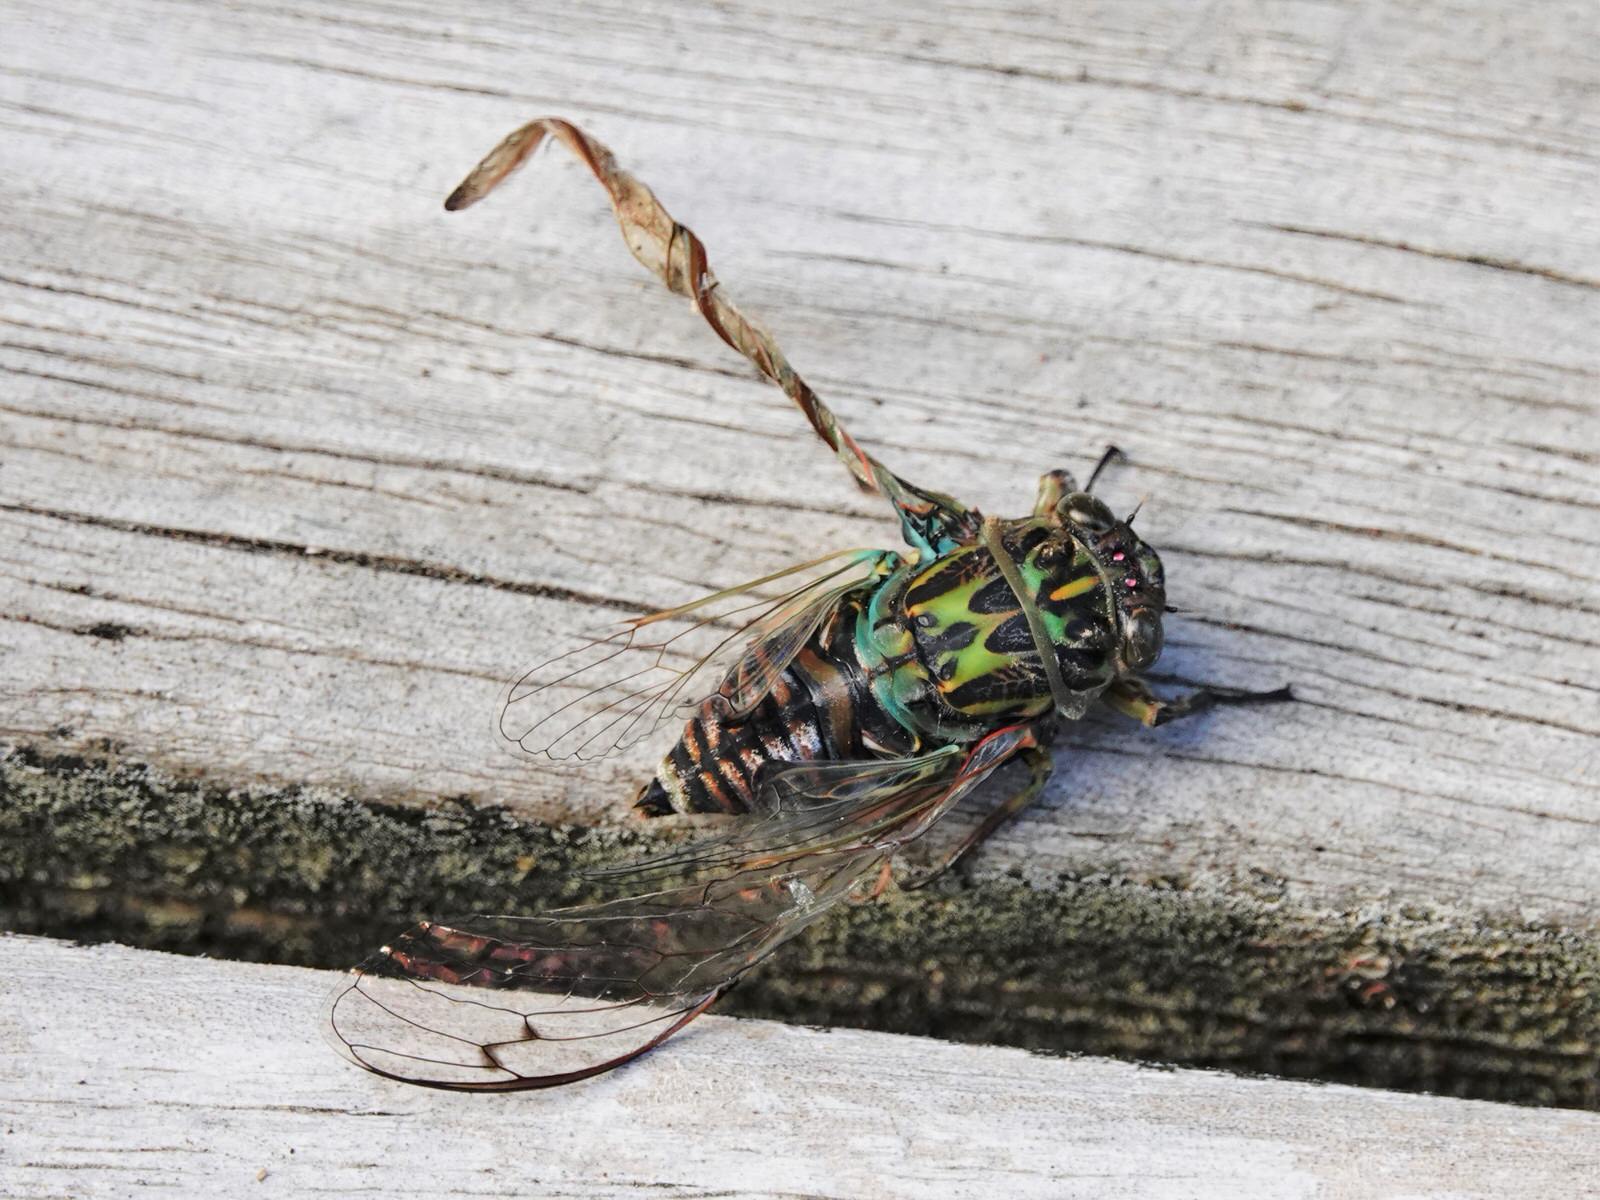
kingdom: Animalia
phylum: Arthropoda
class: Insecta
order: Hemiptera
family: Cicadidae
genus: Amphipsalta
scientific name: Amphipsalta zelandica
